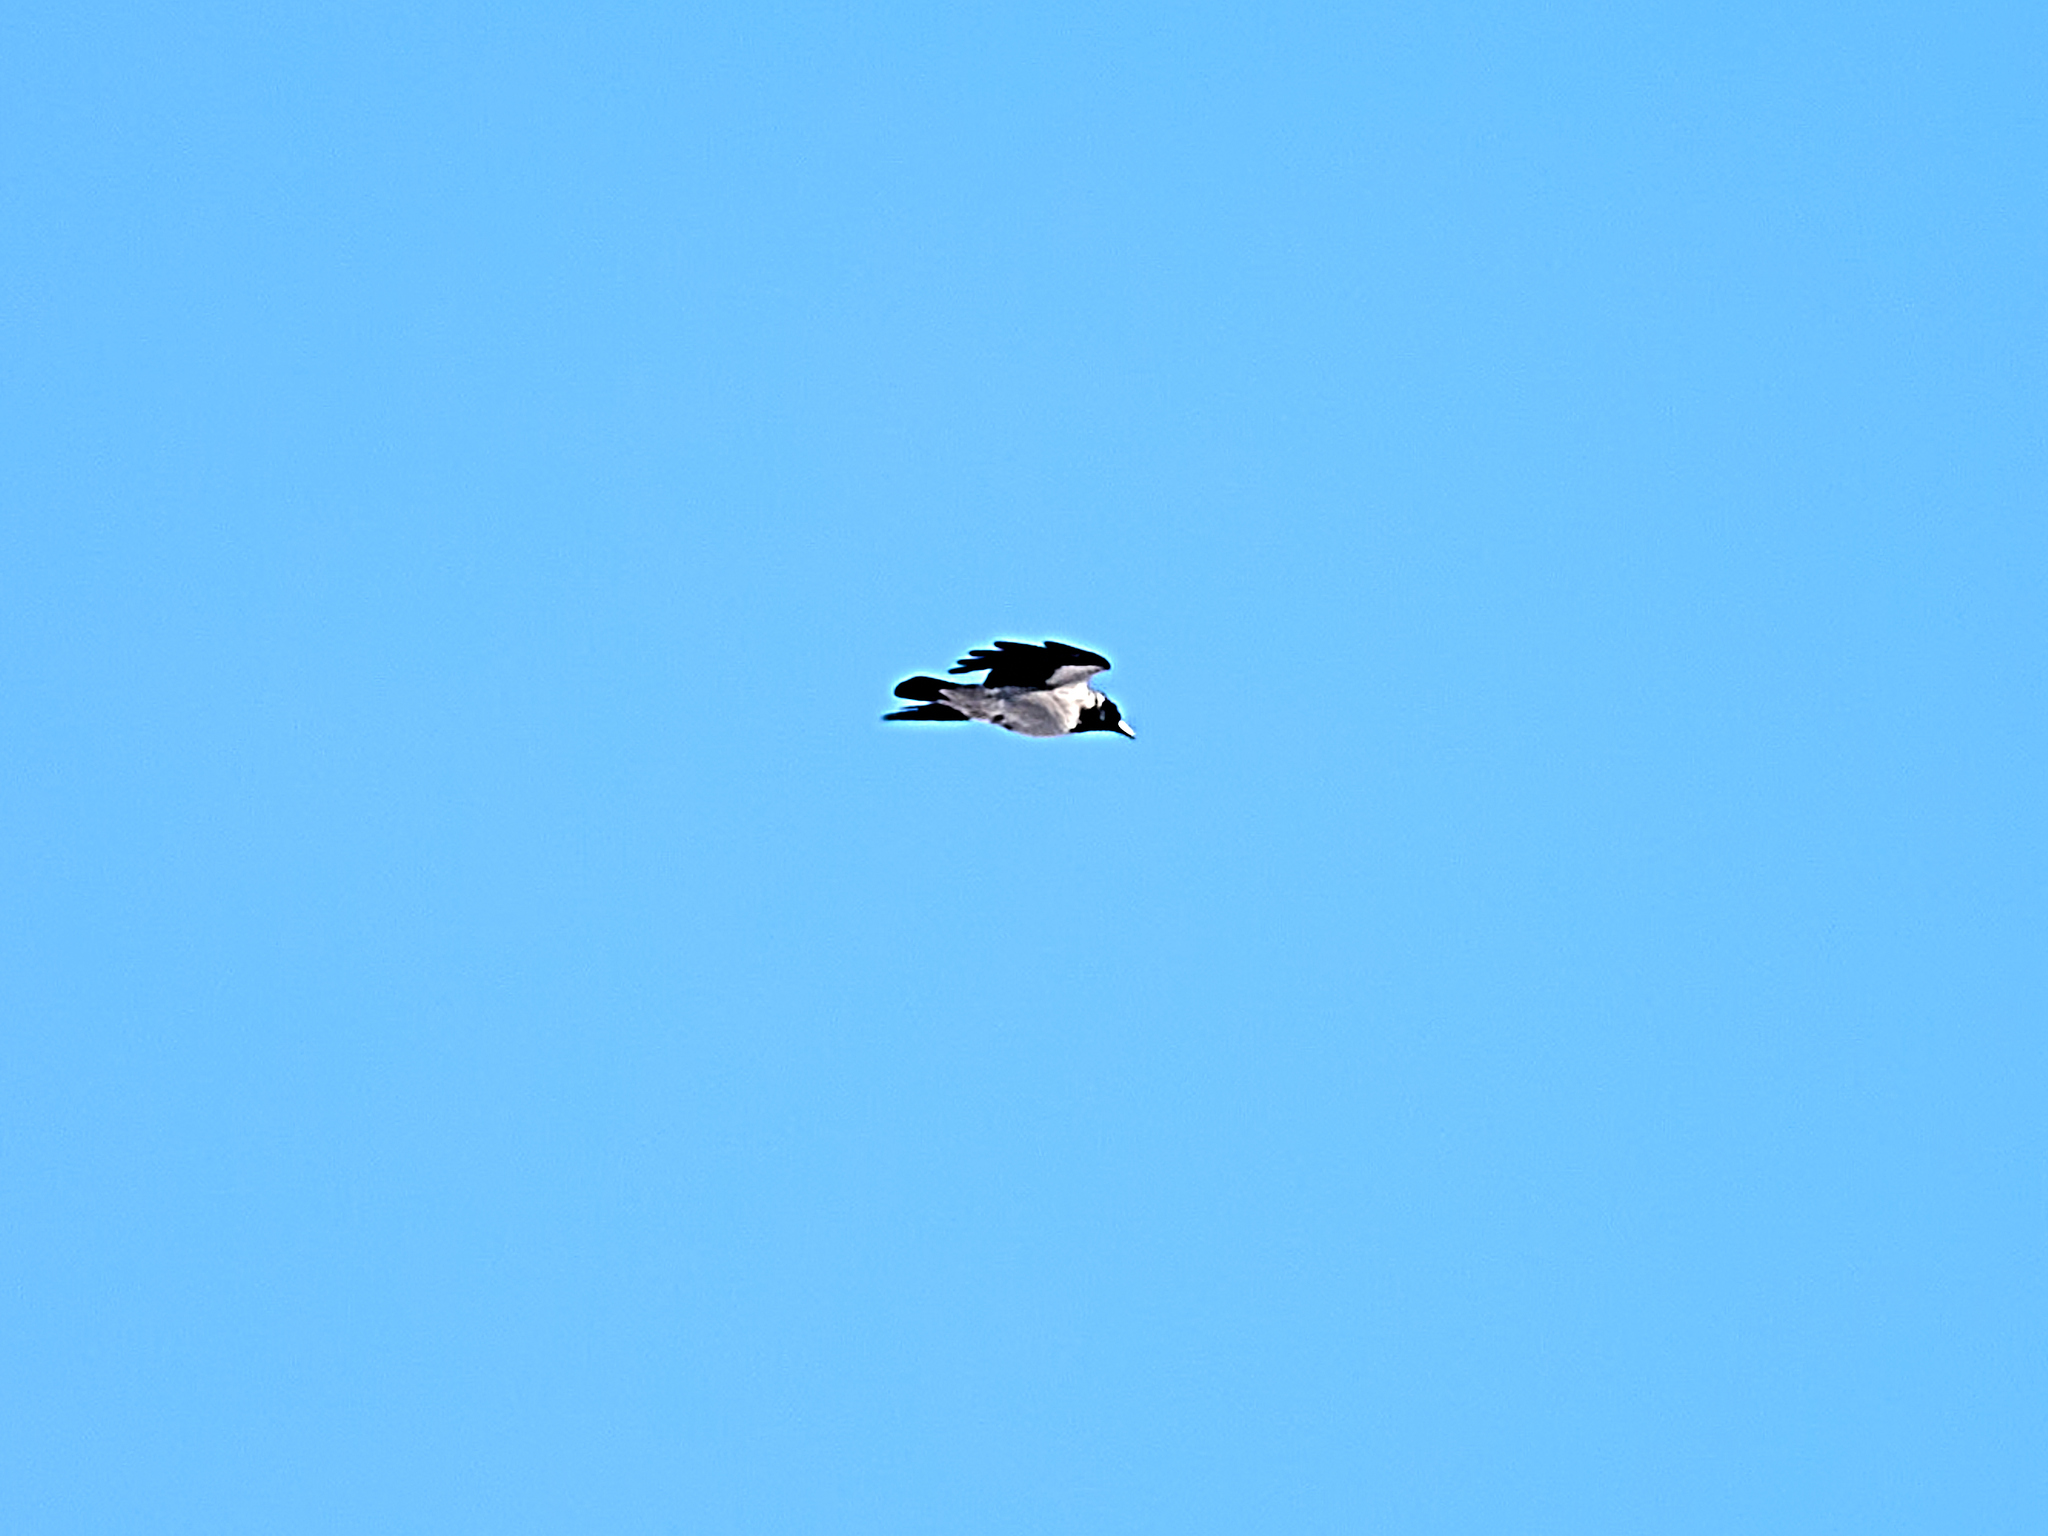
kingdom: Animalia
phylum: Chordata
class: Aves
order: Passeriformes
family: Corvidae
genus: Corvus
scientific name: Corvus cornix
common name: Hooded crow
